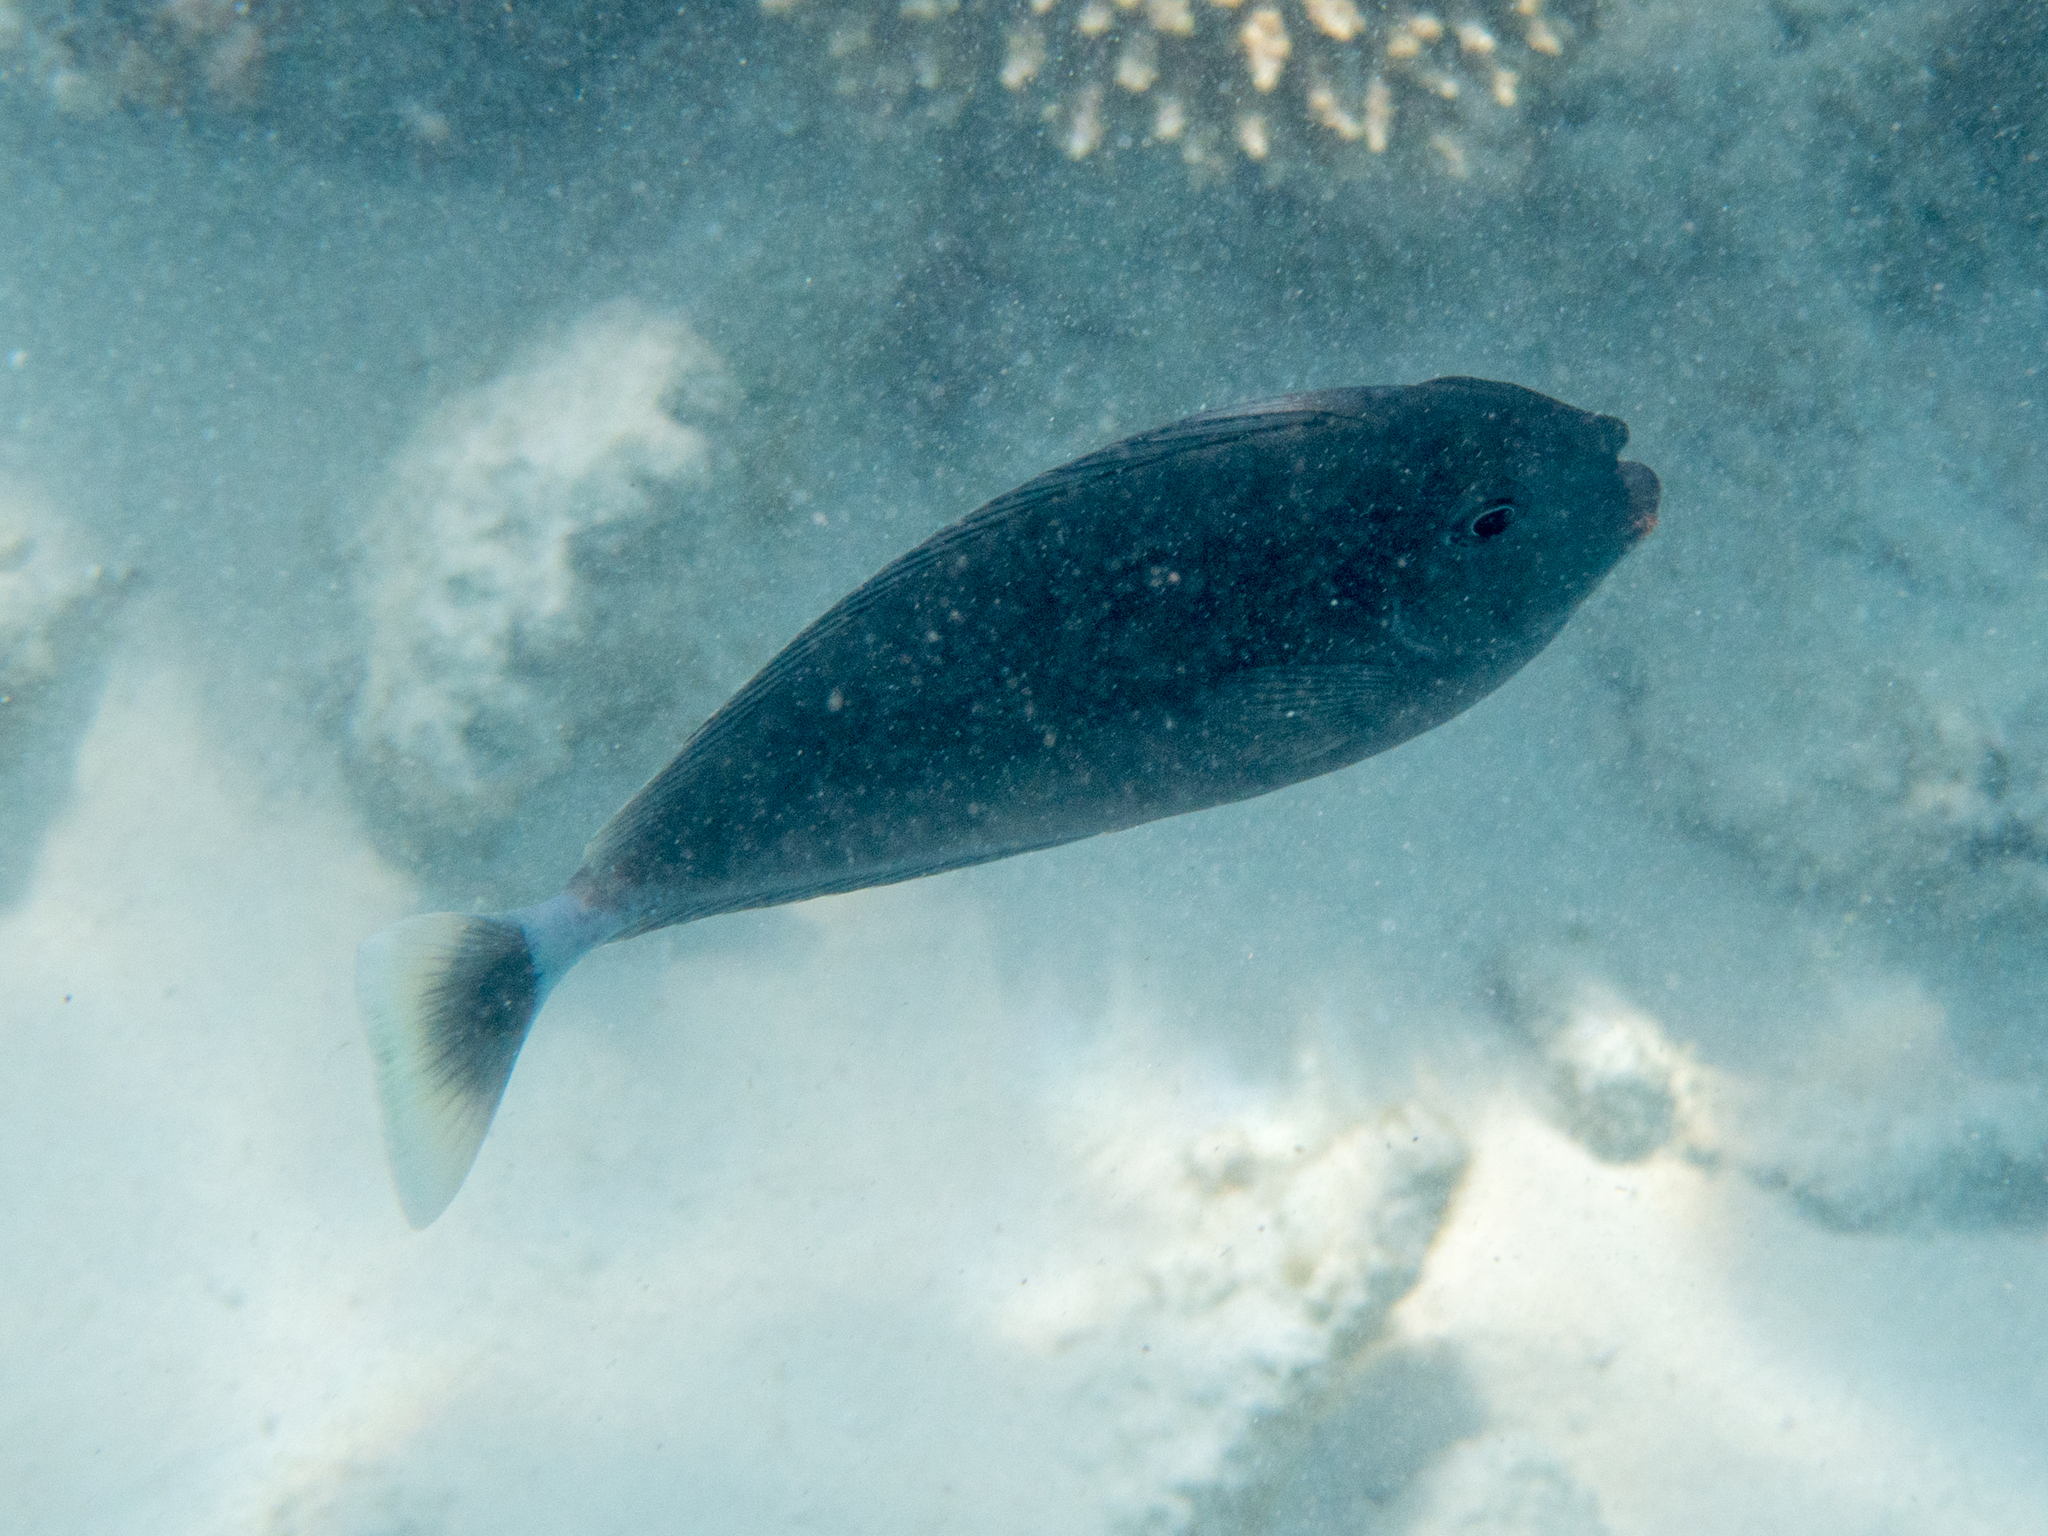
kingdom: Animalia
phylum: Chordata
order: Perciformes
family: Acanthuridae
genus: Naso
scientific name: Naso brevirostris
